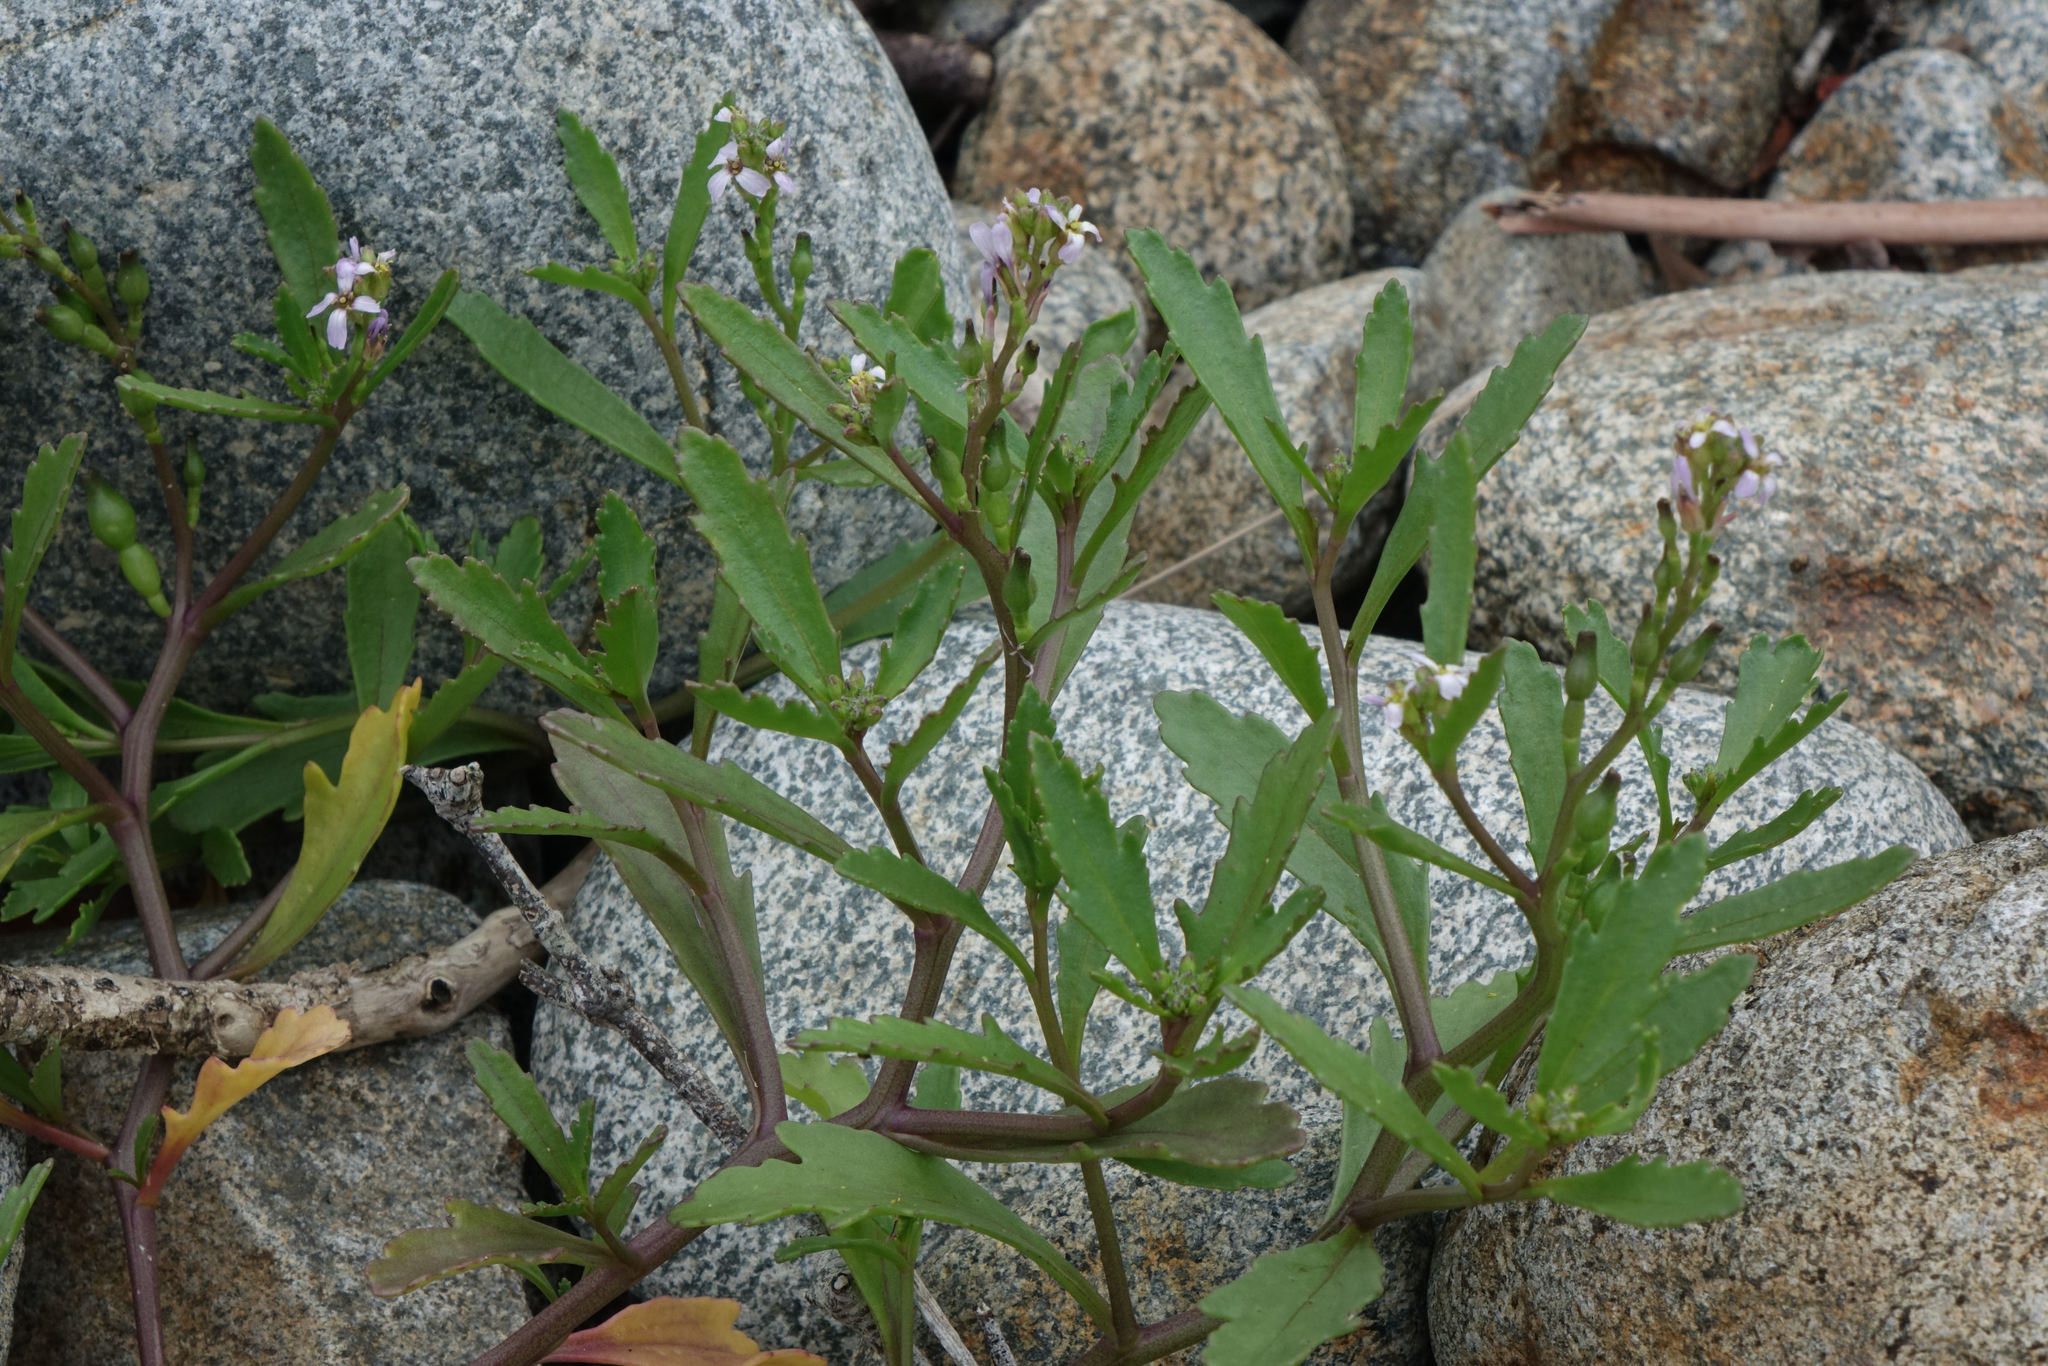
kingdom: Plantae
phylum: Tracheophyta
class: Magnoliopsida
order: Brassicales
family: Brassicaceae
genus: Cakile
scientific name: Cakile edentula
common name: American sea rocket
